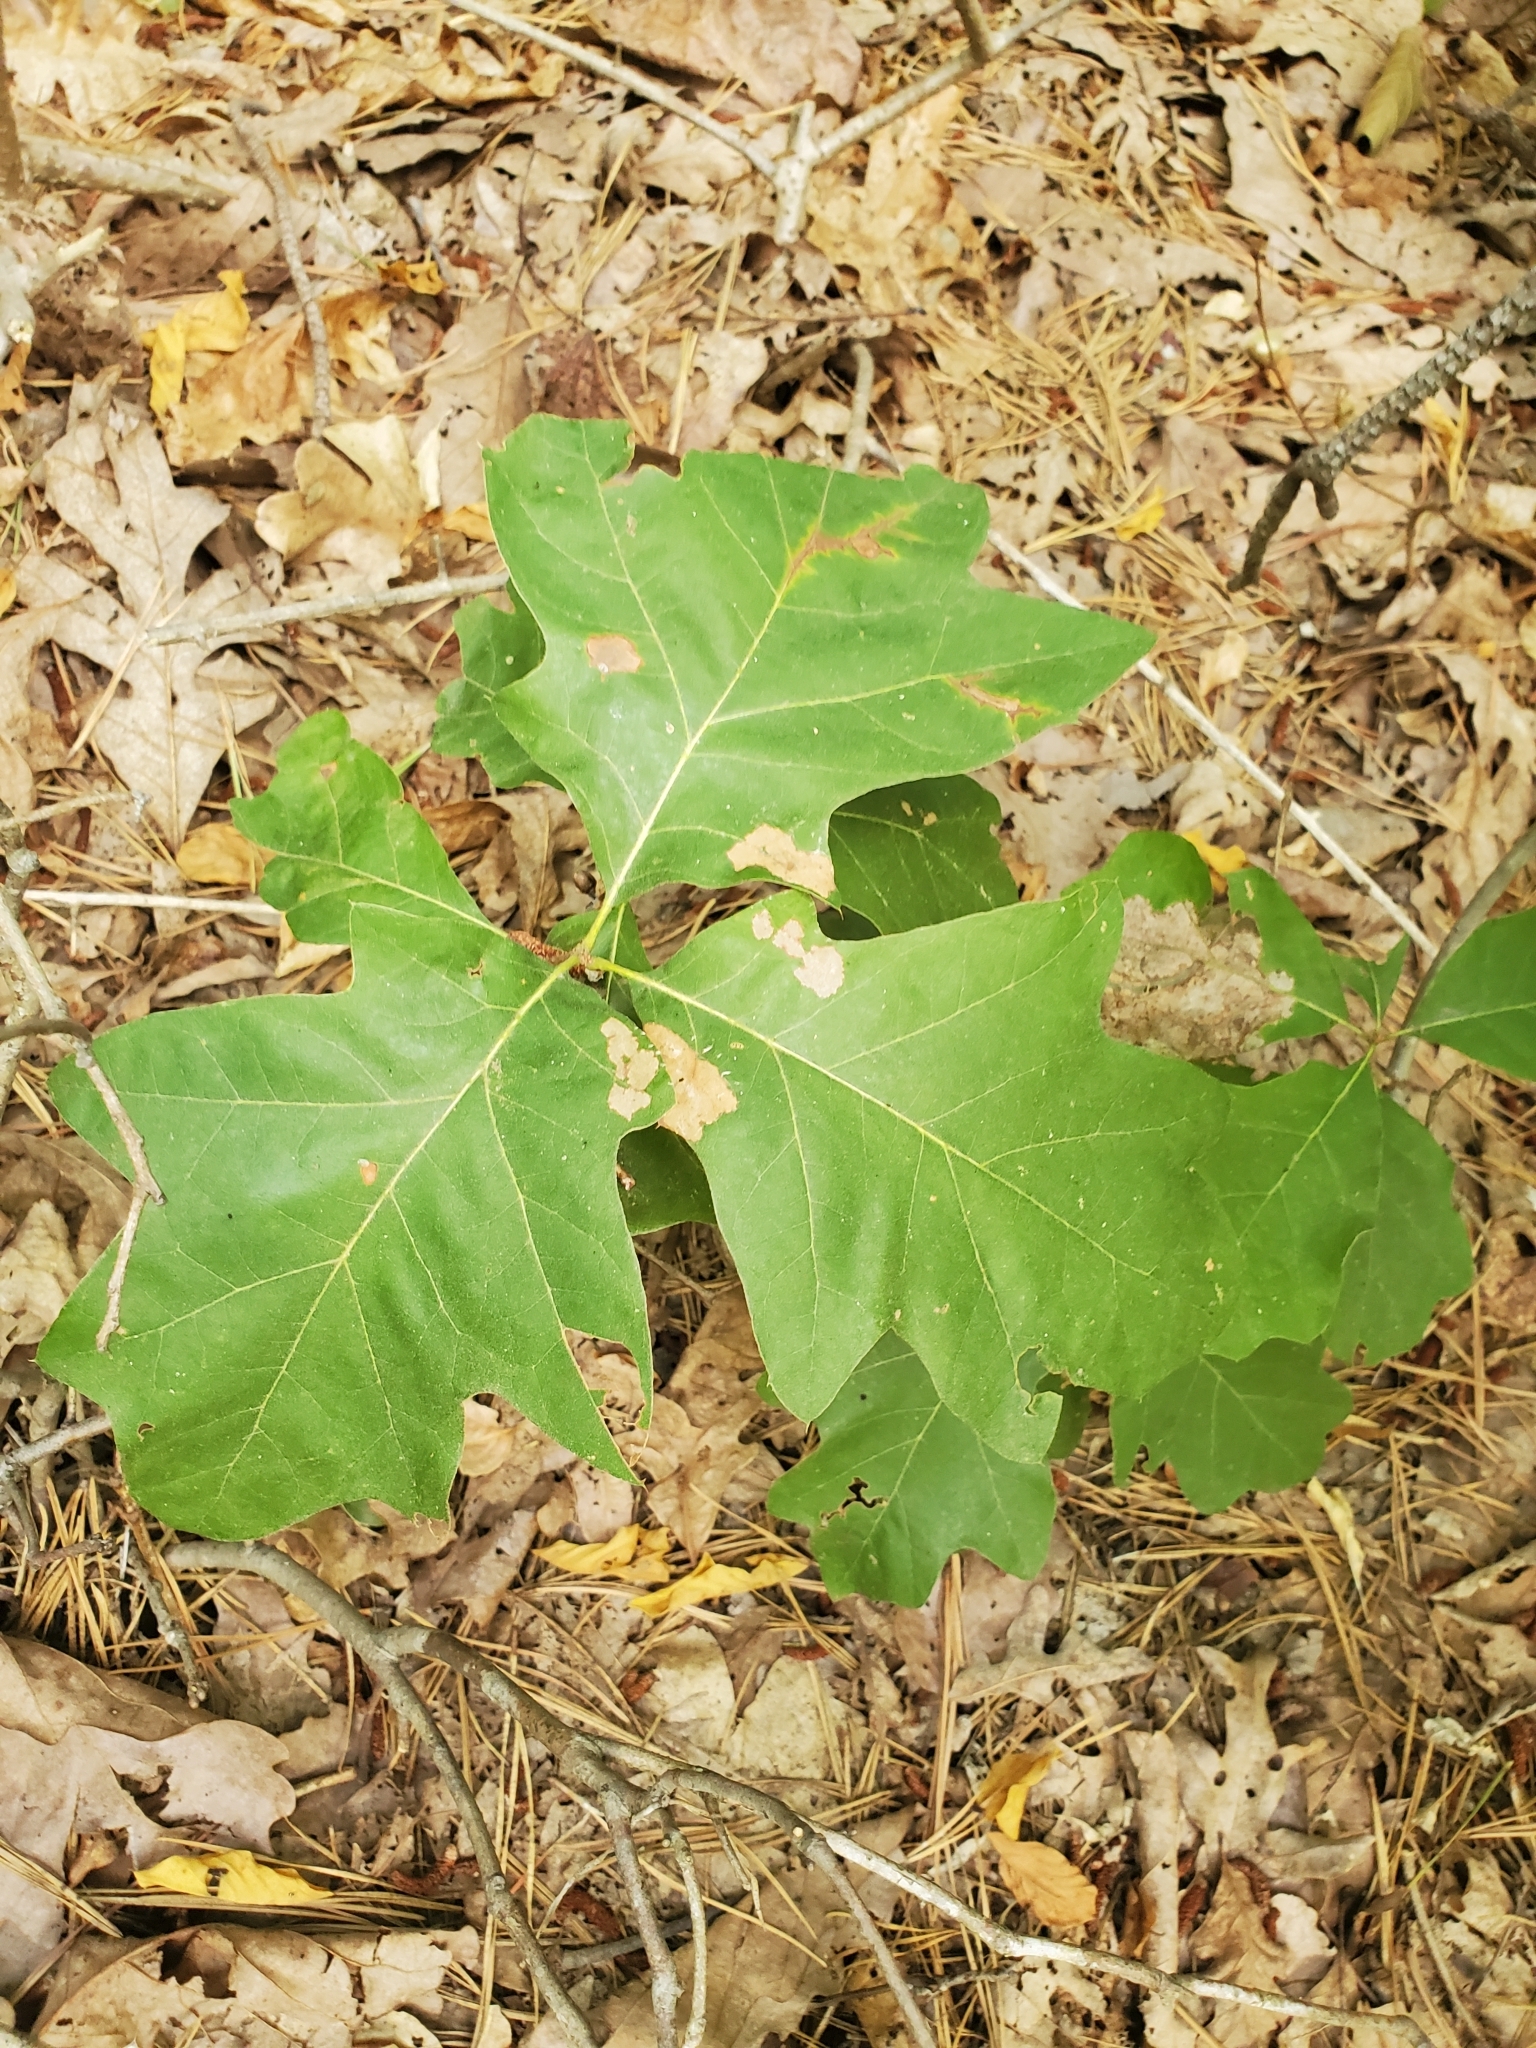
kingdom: Plantae
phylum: Tracheophyta
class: Magnoliopsida
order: Fagales
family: Fagaceae
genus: Quercus
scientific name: Quercus velutina
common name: Black oak
